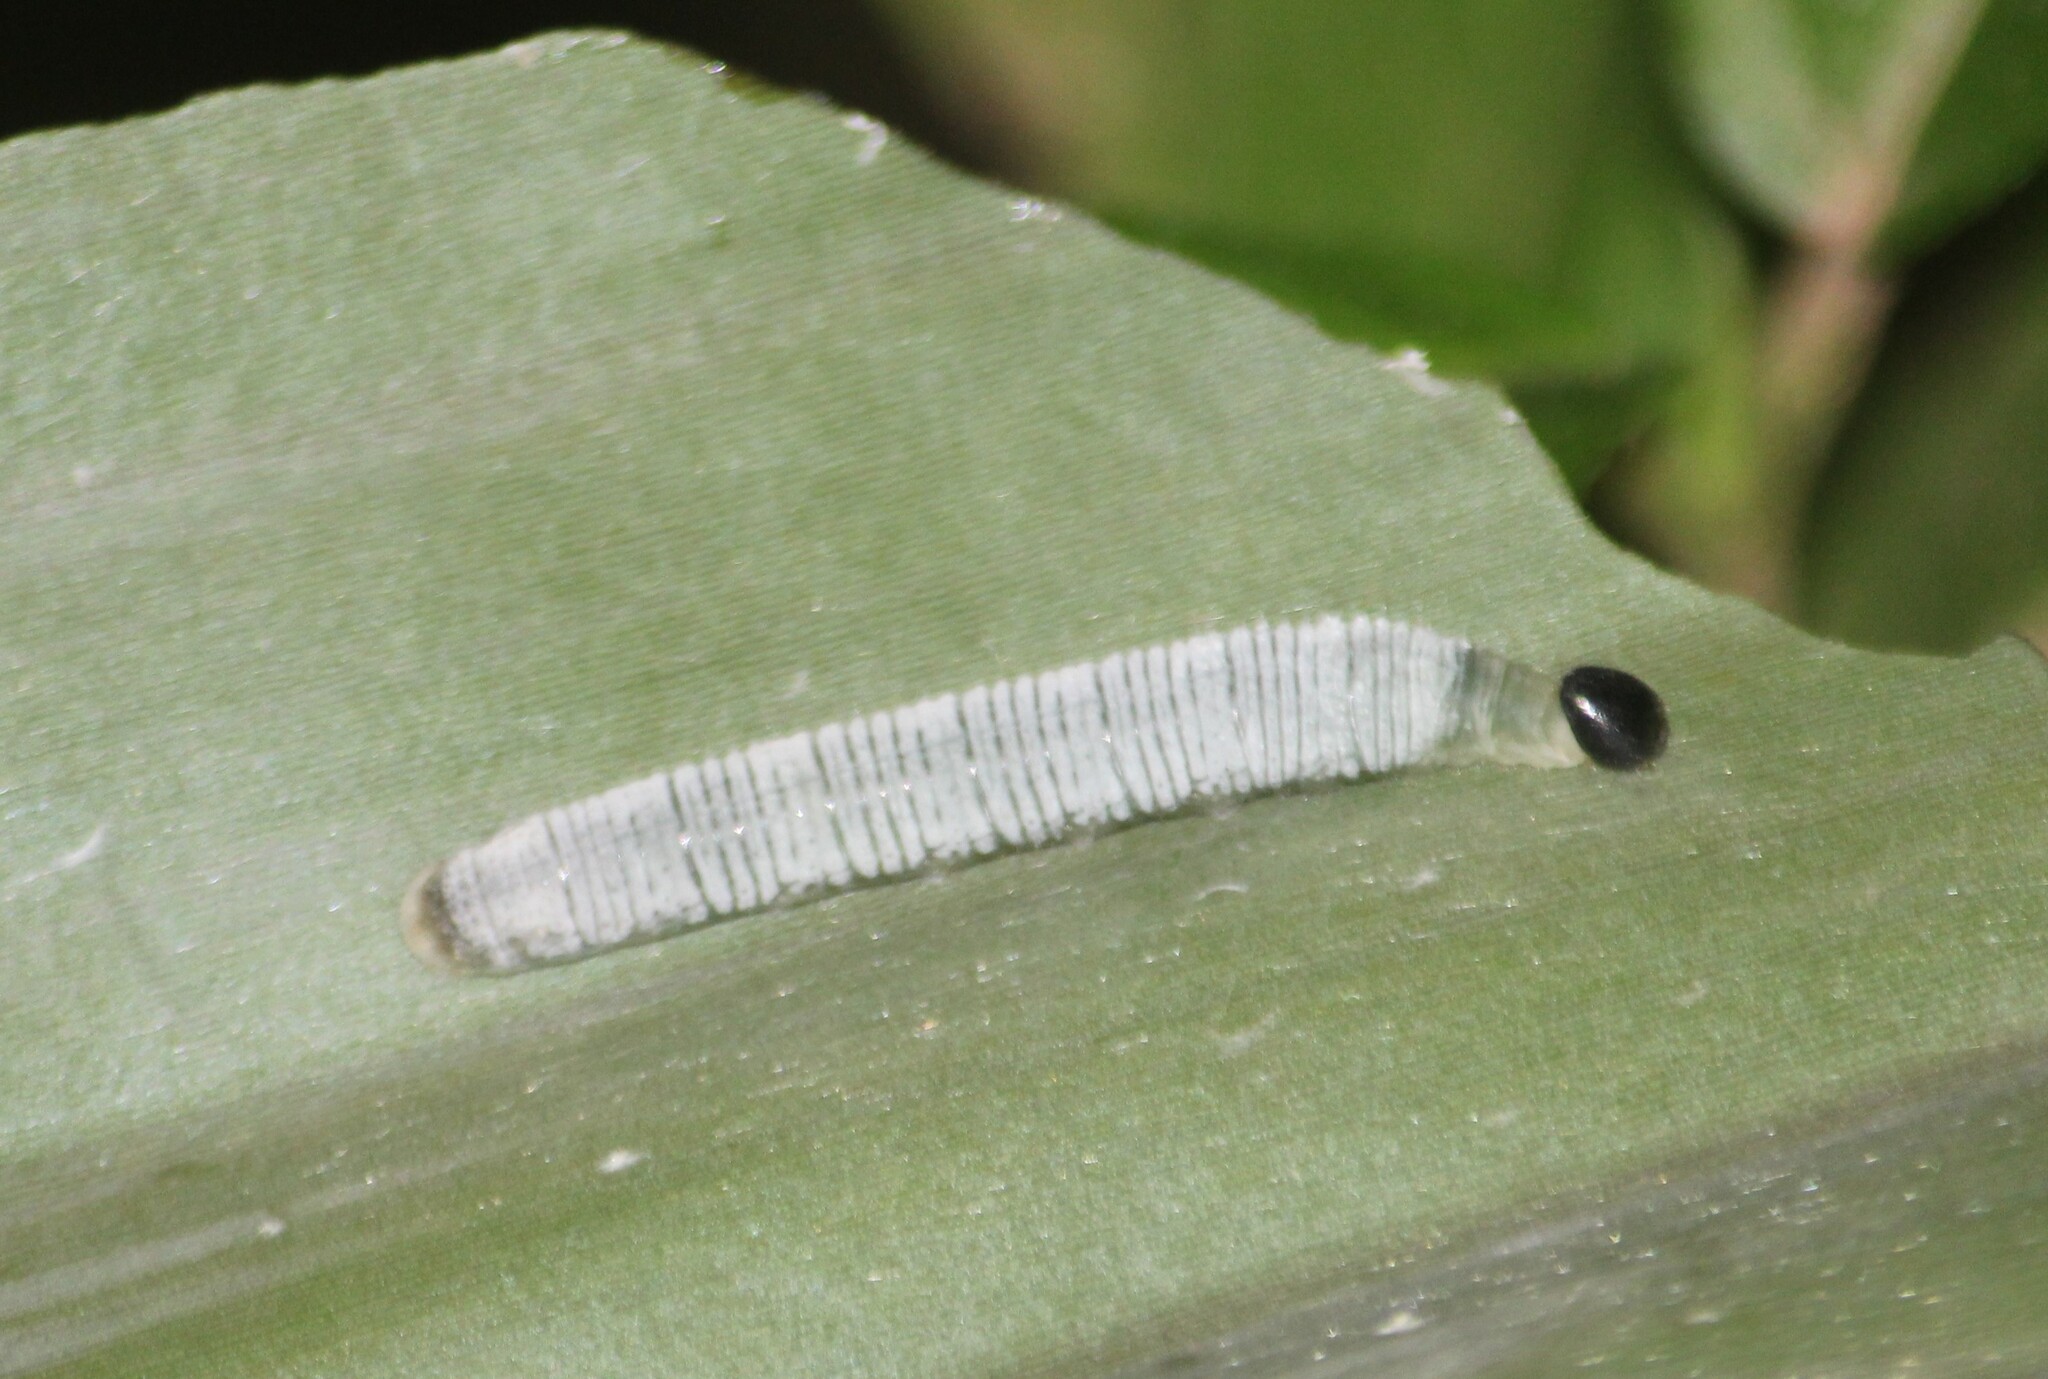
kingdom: Animalia
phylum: Arthropoda
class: Insecta
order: Lepidoptera
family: Hesperiidae
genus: Erionota
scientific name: Erionota torus
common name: Rounded palm-redeye
